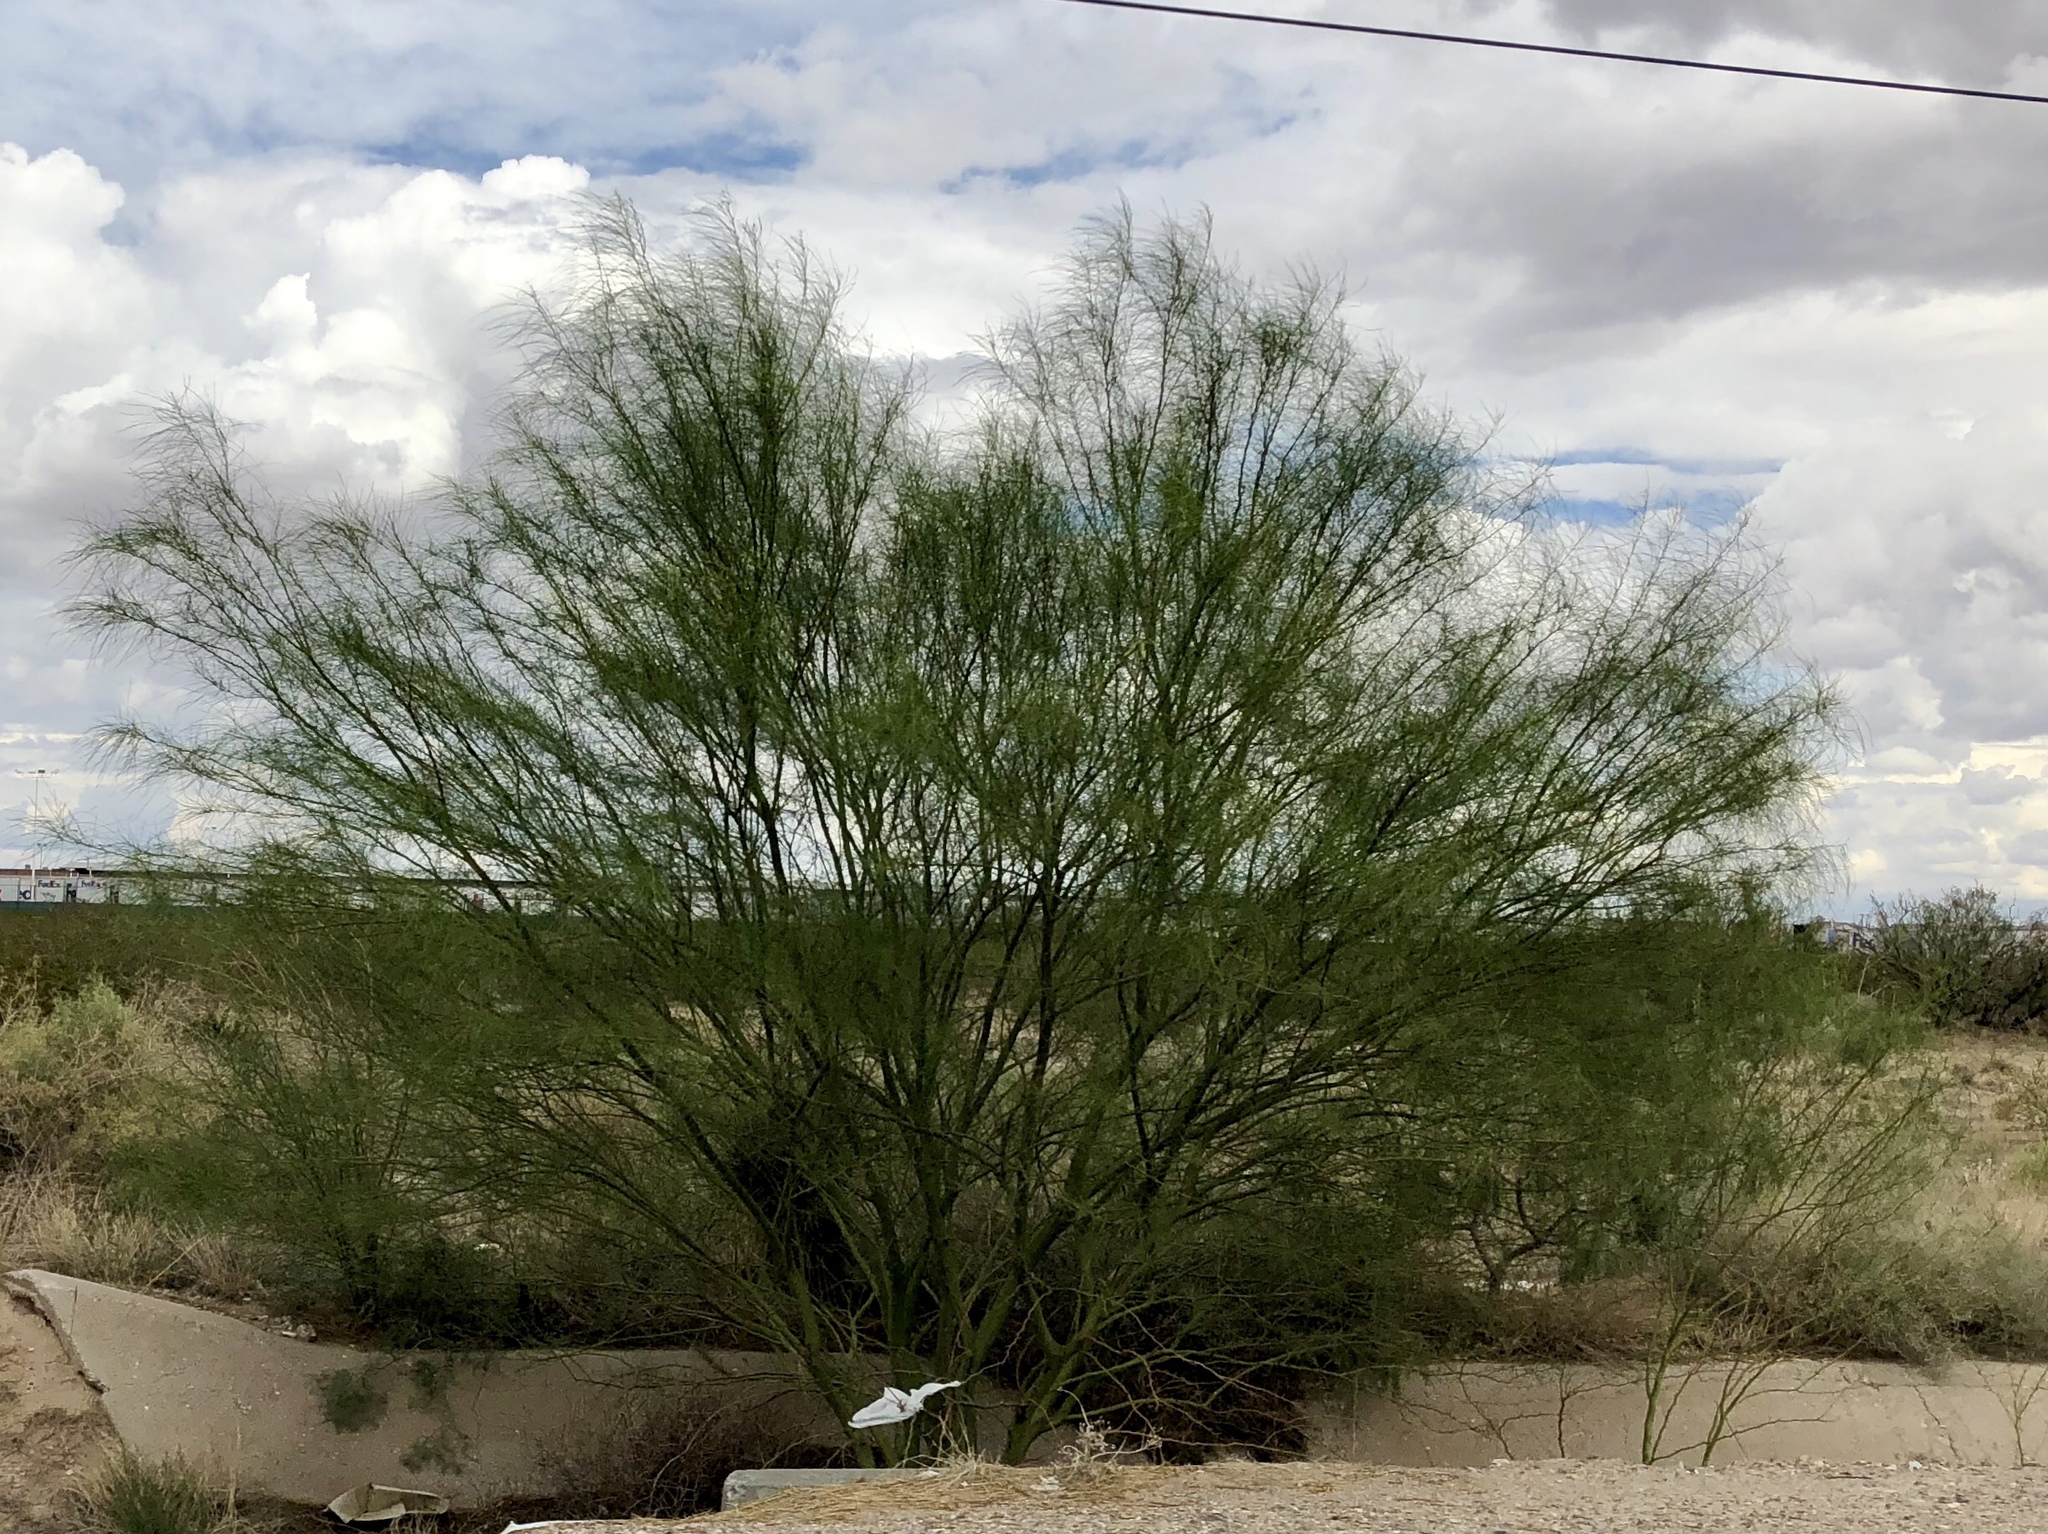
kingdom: Plantae
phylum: Tracheophyta
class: Magnoliopsida
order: Fabales
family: Fabaceae
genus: Parkinsonia
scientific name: Parkinsonia aculeata
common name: Jerusalem thorn
